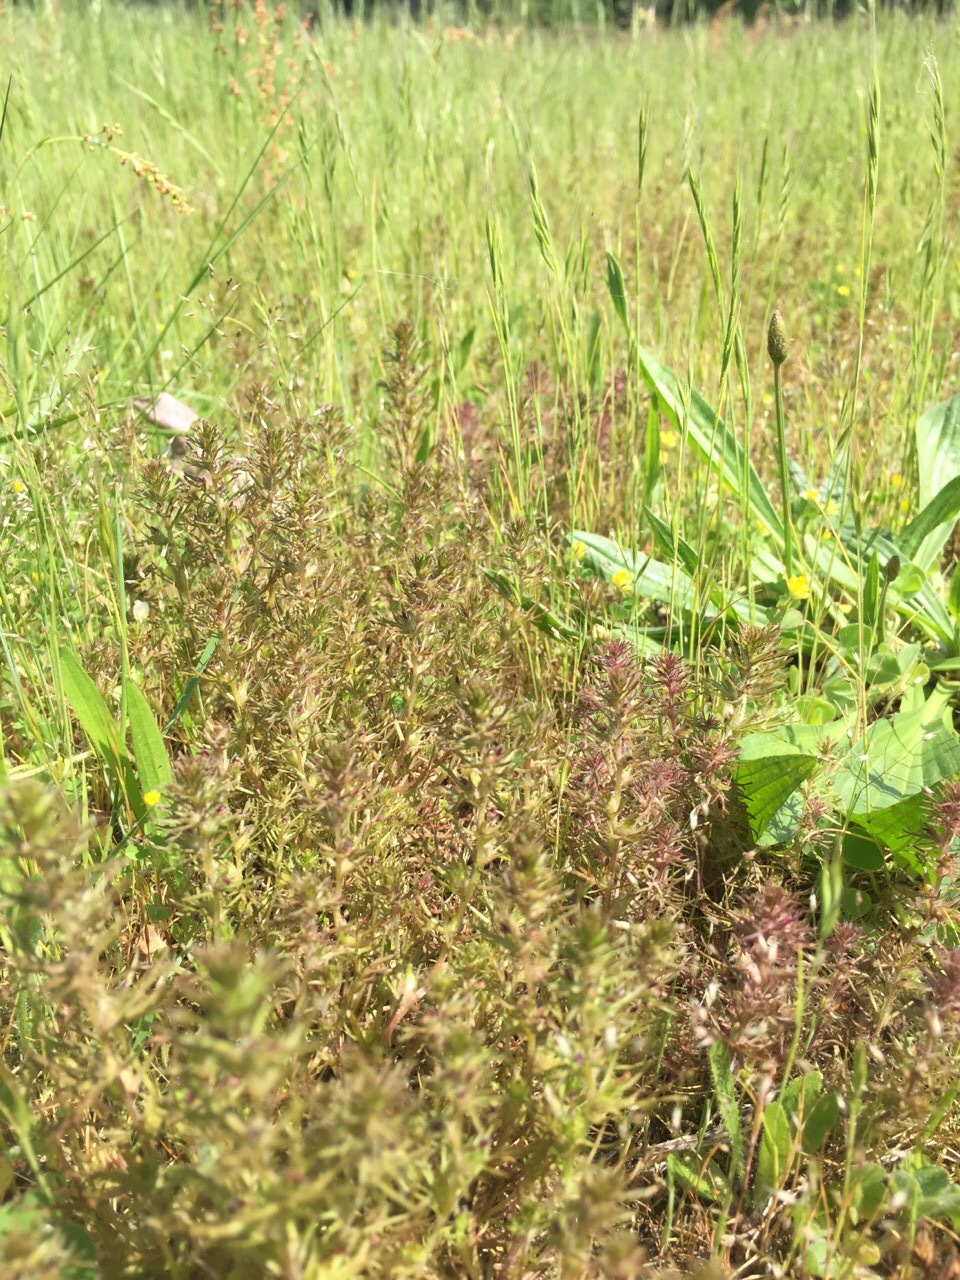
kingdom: Plantae
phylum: Tracheophyta
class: Magnoliopsida
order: Lamiales
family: Orobanchaceae
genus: Triphysaria
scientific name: Triphysaria pusilla
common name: Dwarf false owl-clover
